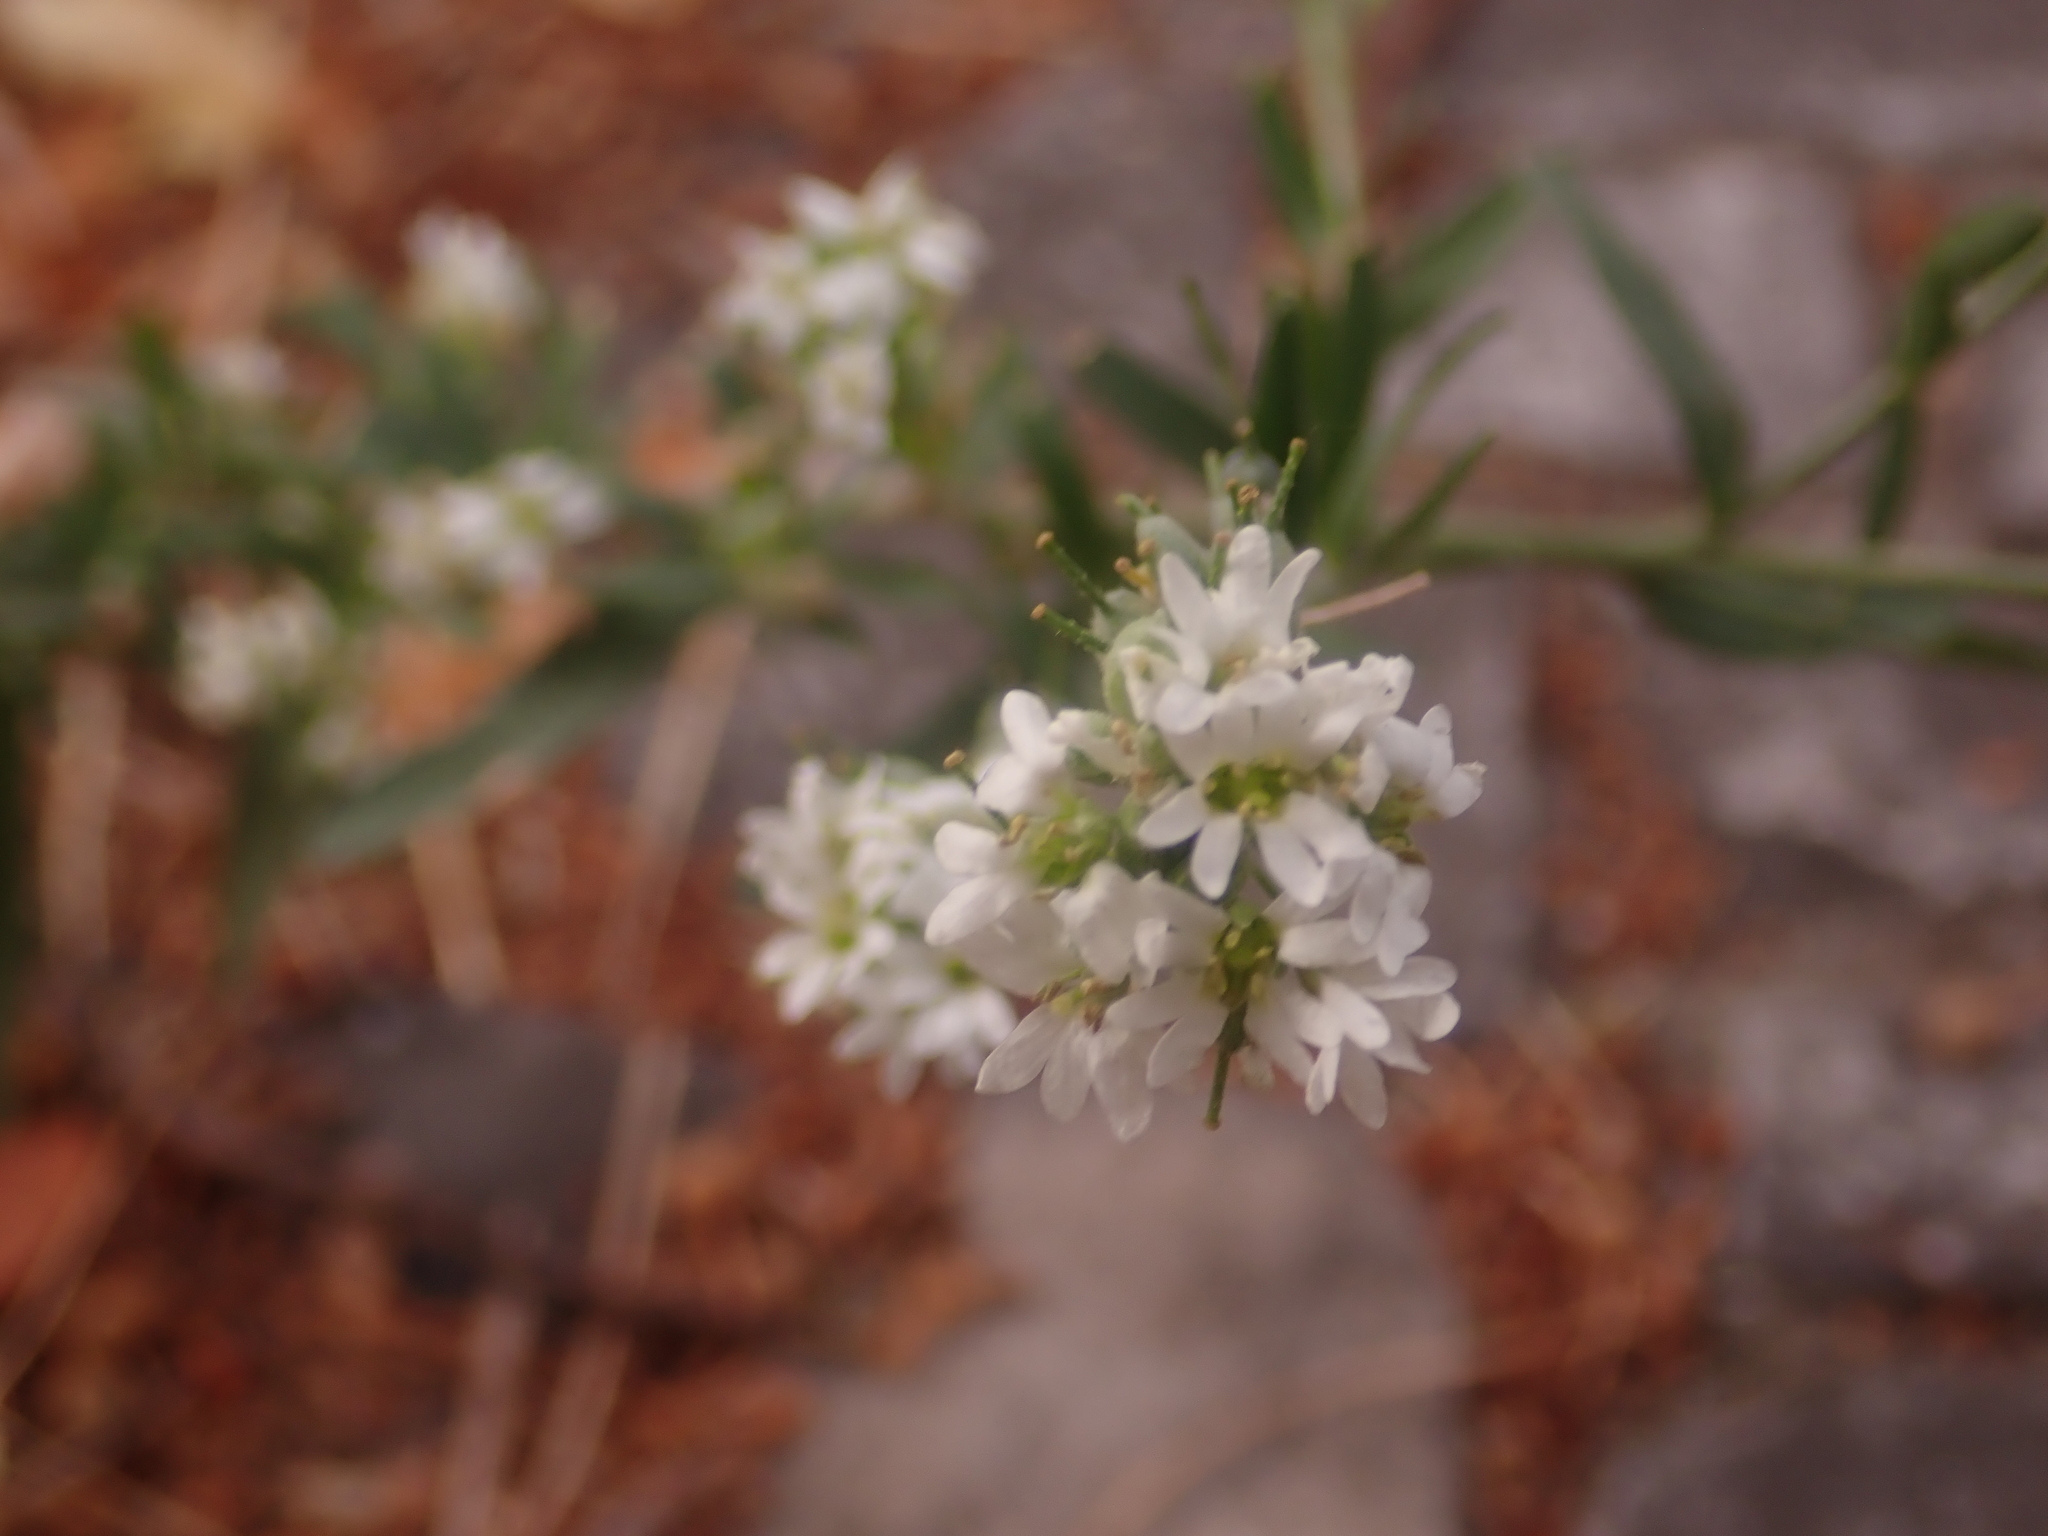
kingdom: Plantae
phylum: Tracheophyta
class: Magnoliopsida
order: Brassicales
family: Brassicaceae
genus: Berteroa
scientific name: Berteroa incana
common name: Hoary alison
